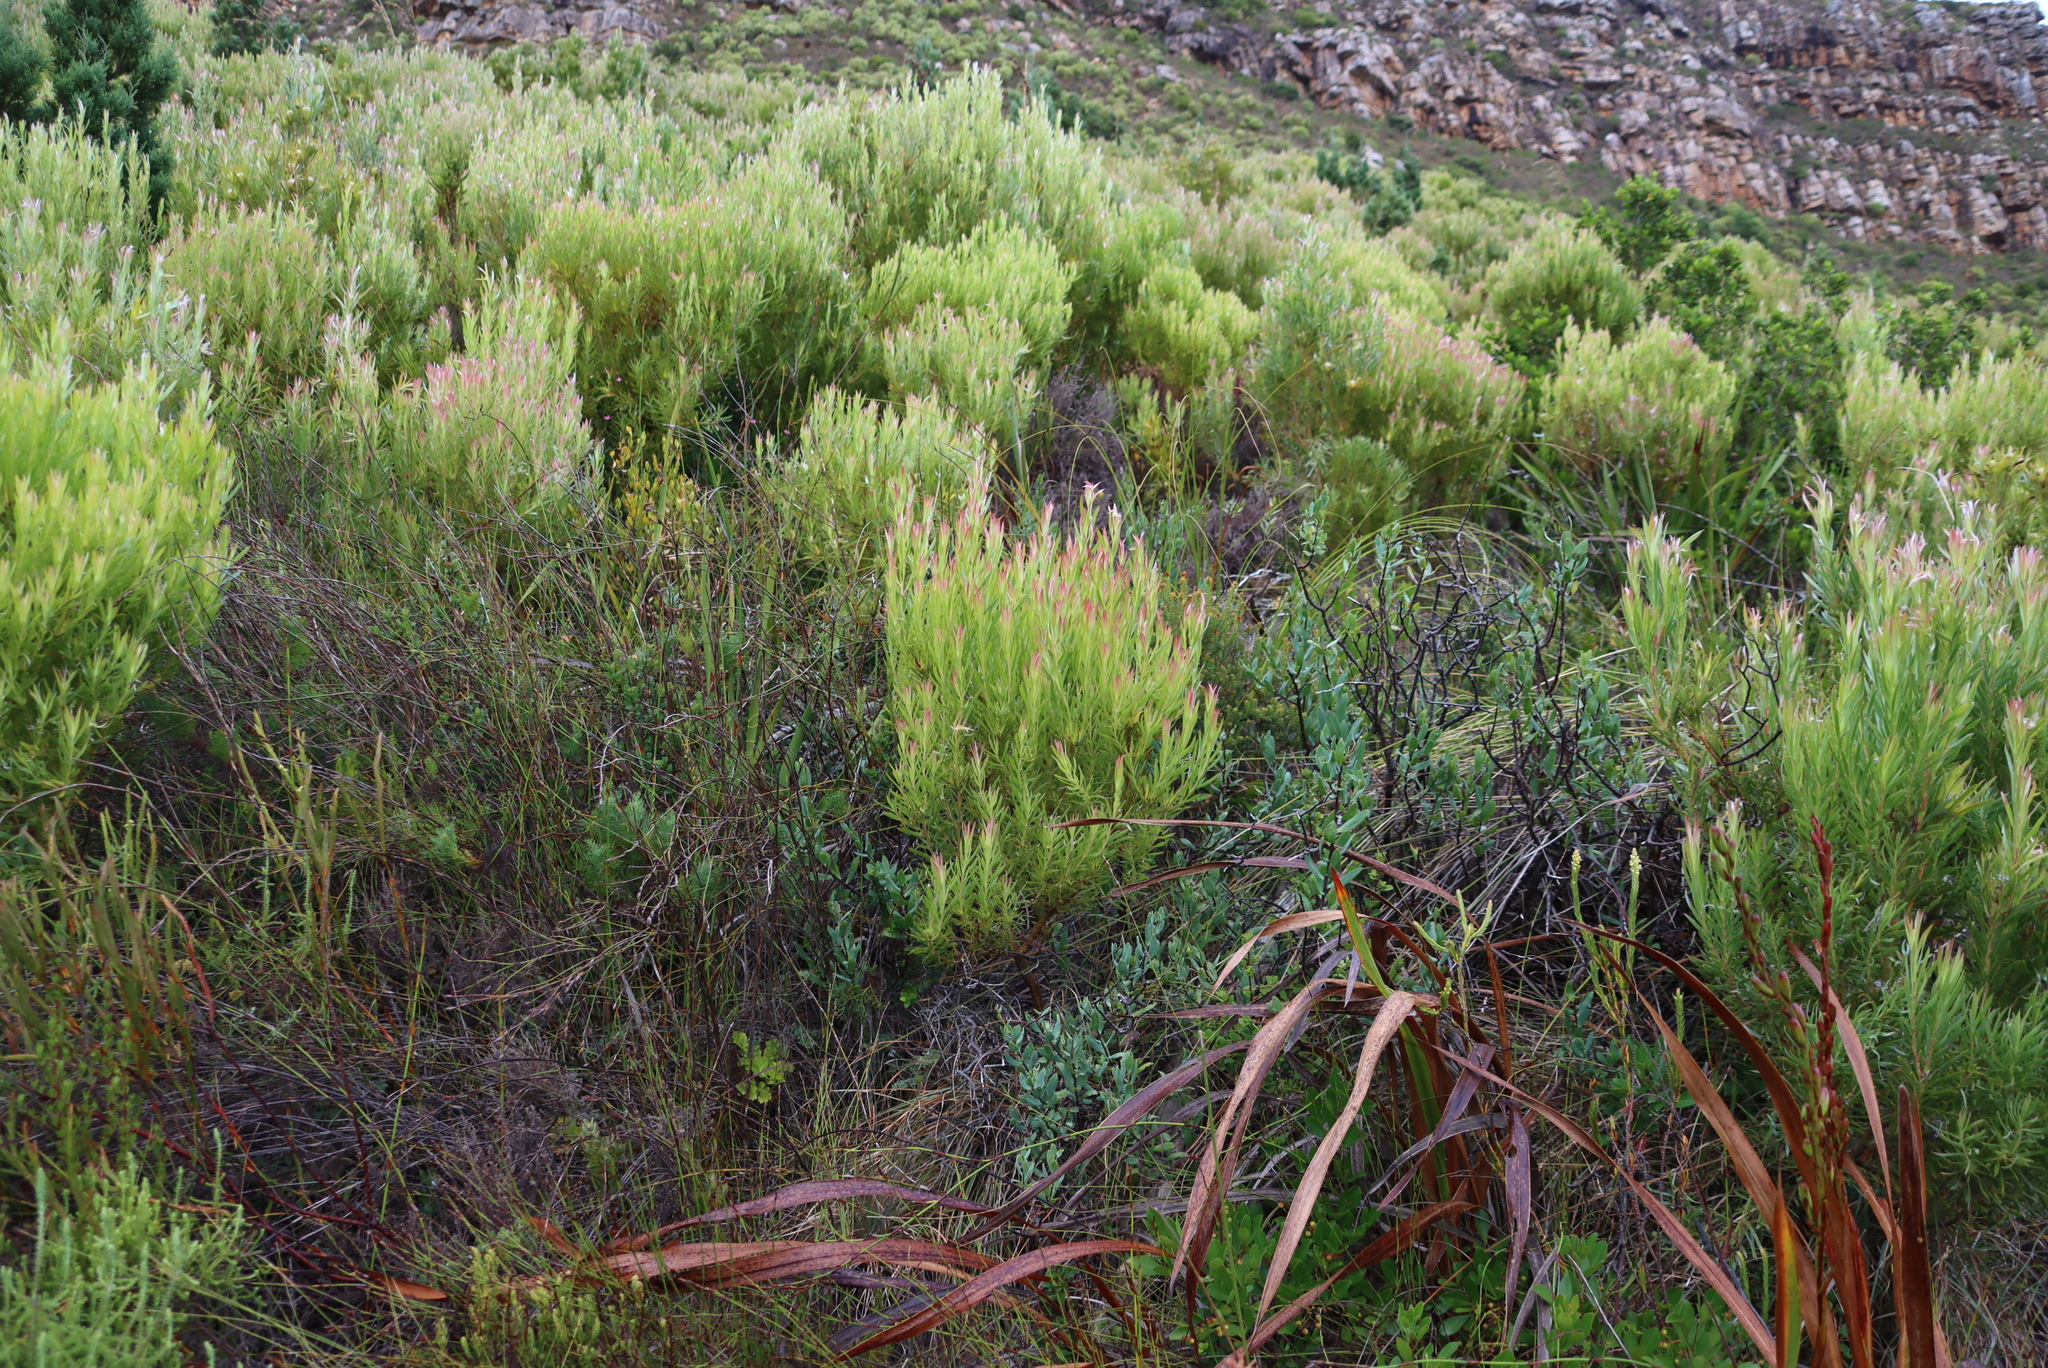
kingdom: Plantae
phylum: Tracheophyta
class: Magnoliopsida
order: Proteales
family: Proteaceae
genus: Leucadendron
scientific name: Leucadendron xanthoconus
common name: Sickle-leaf conebush
